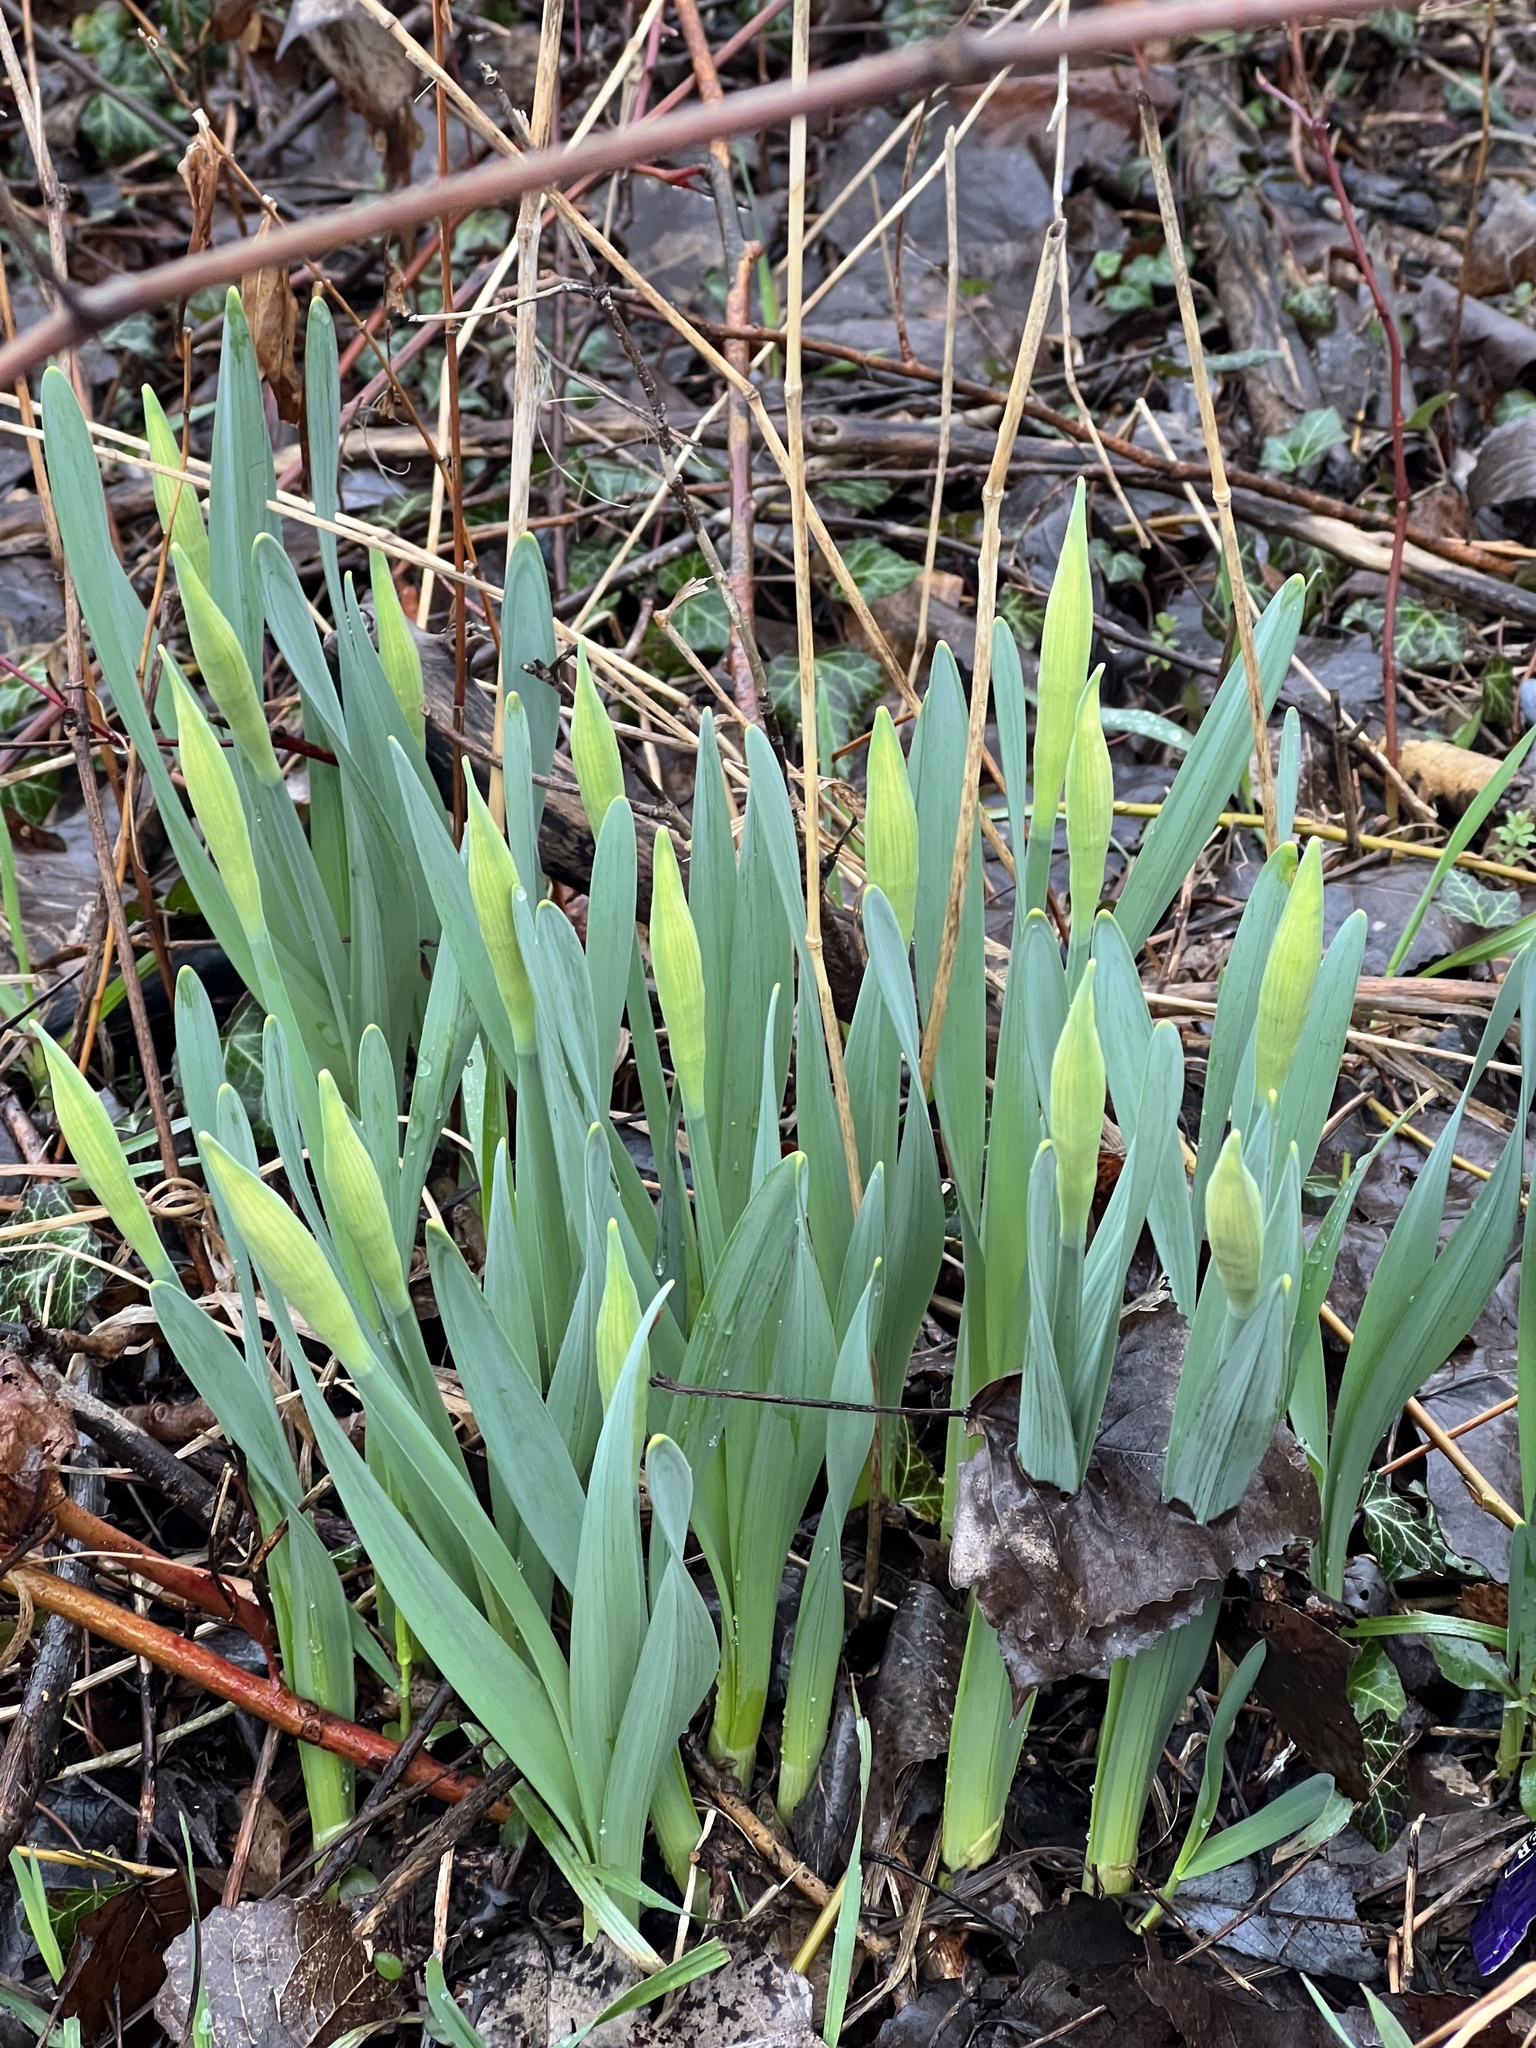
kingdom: Plantae
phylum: Tracheophyta
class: Liliopsida
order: Asparagales
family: Amaryllidaceae
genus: Narcissus
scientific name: Narcissus
